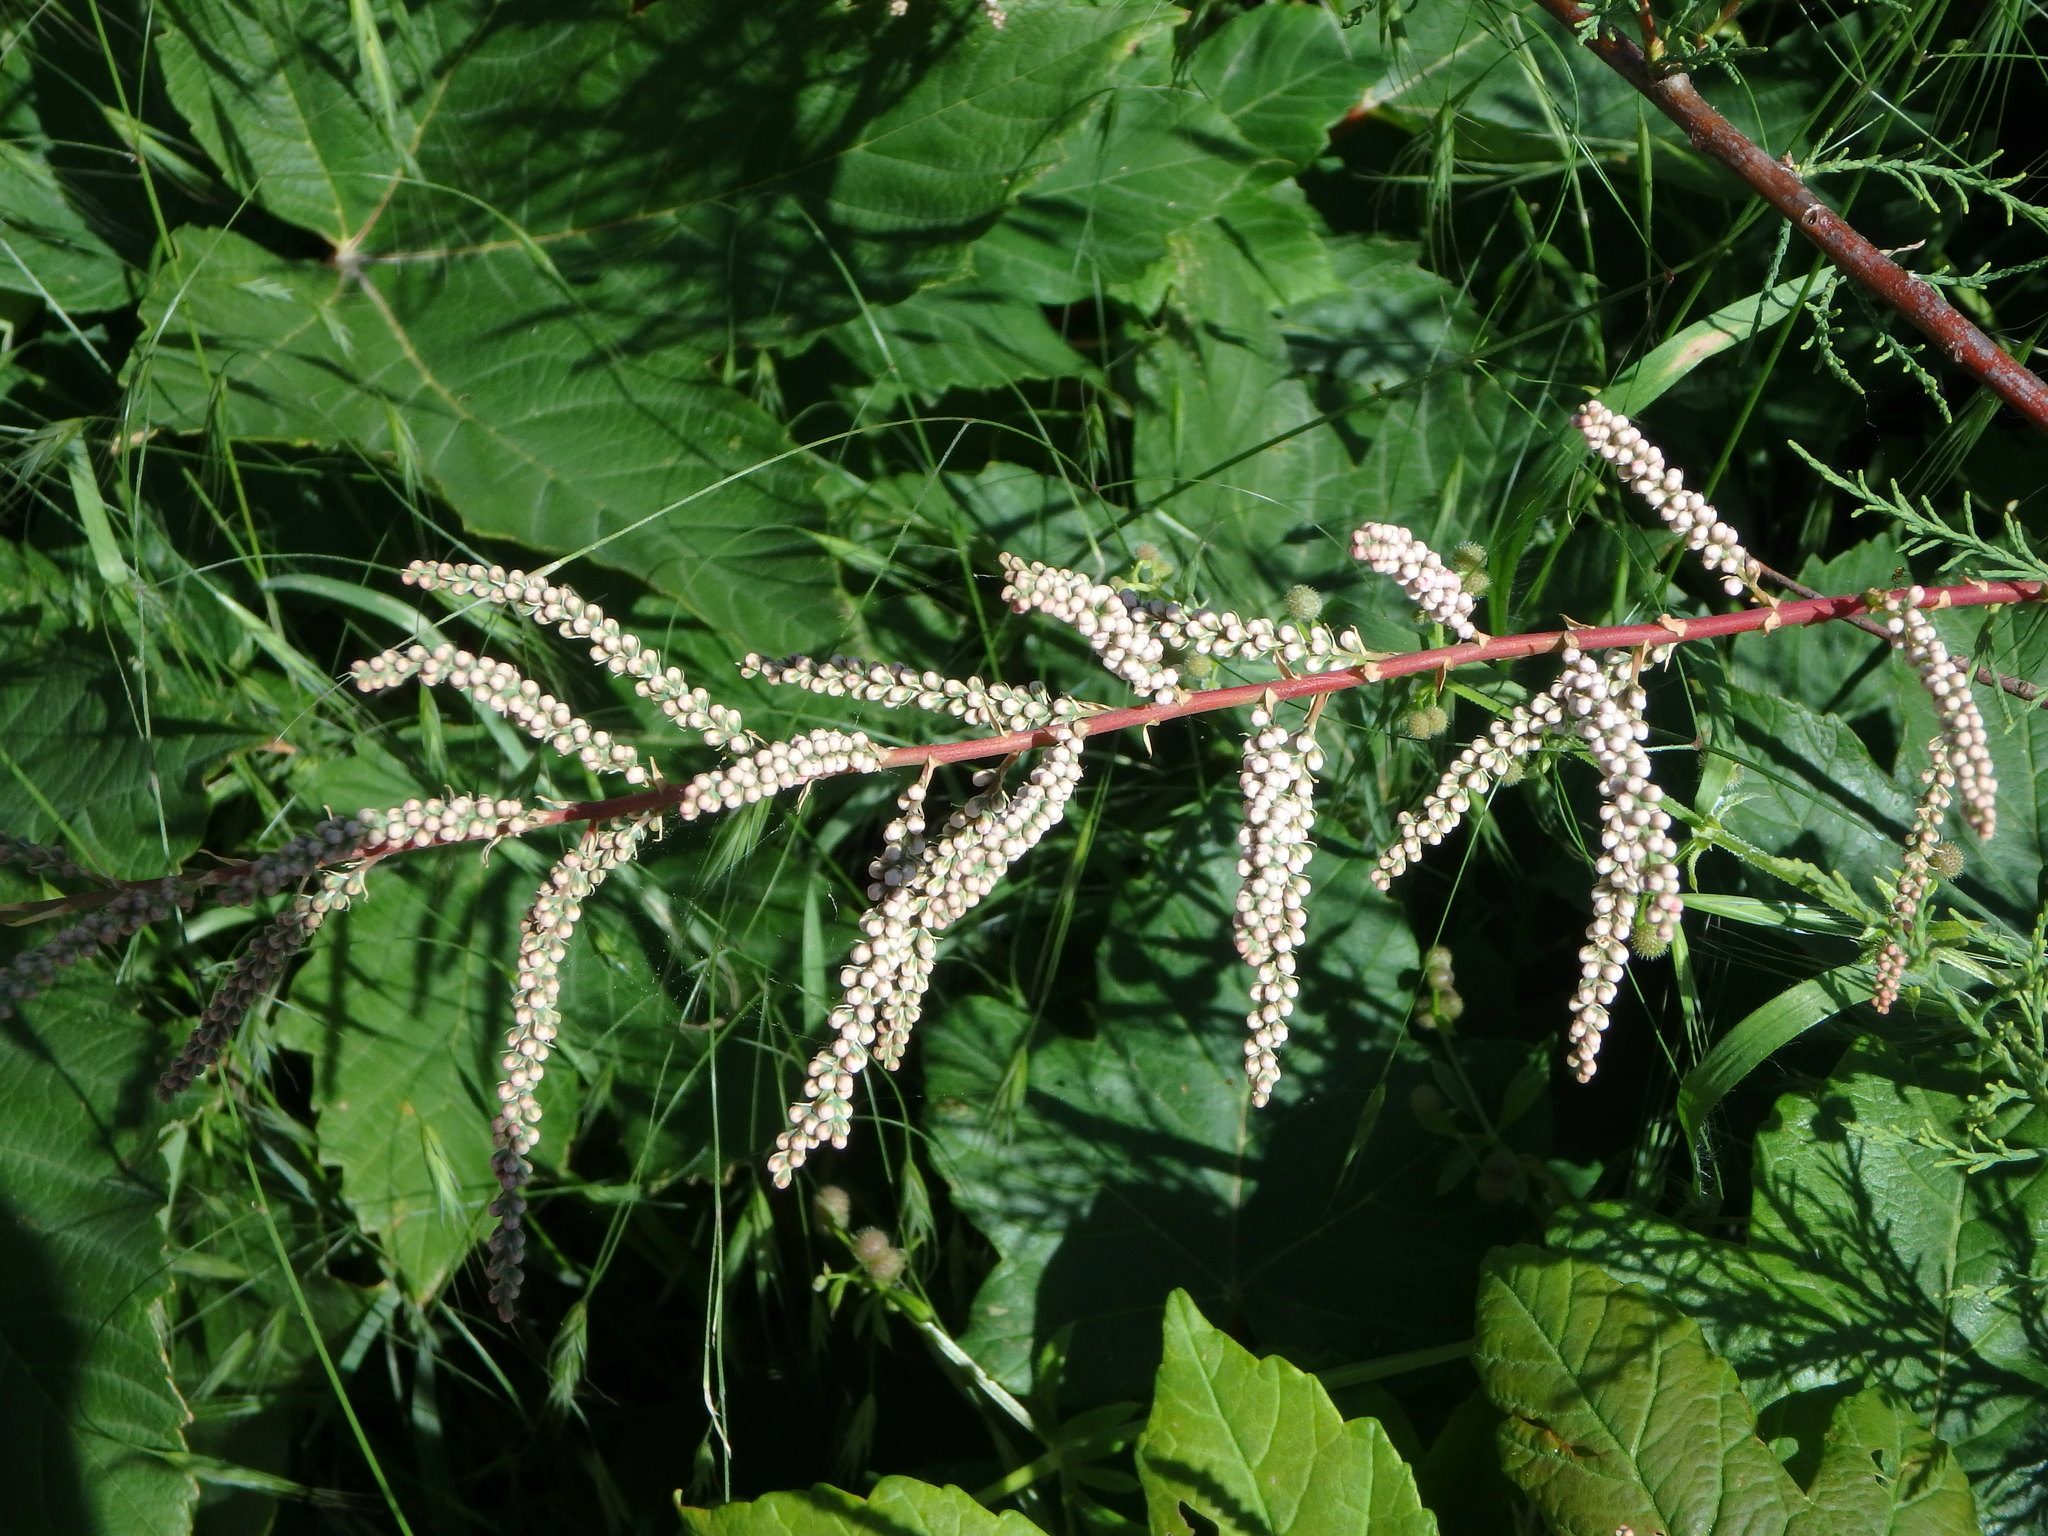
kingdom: Plantae
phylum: Tracheophyta
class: Magnoliopsida
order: Caryophyllales
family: Tamaricaceae
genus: Tamarix
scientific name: Tamarix gallica
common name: Tamarisk
